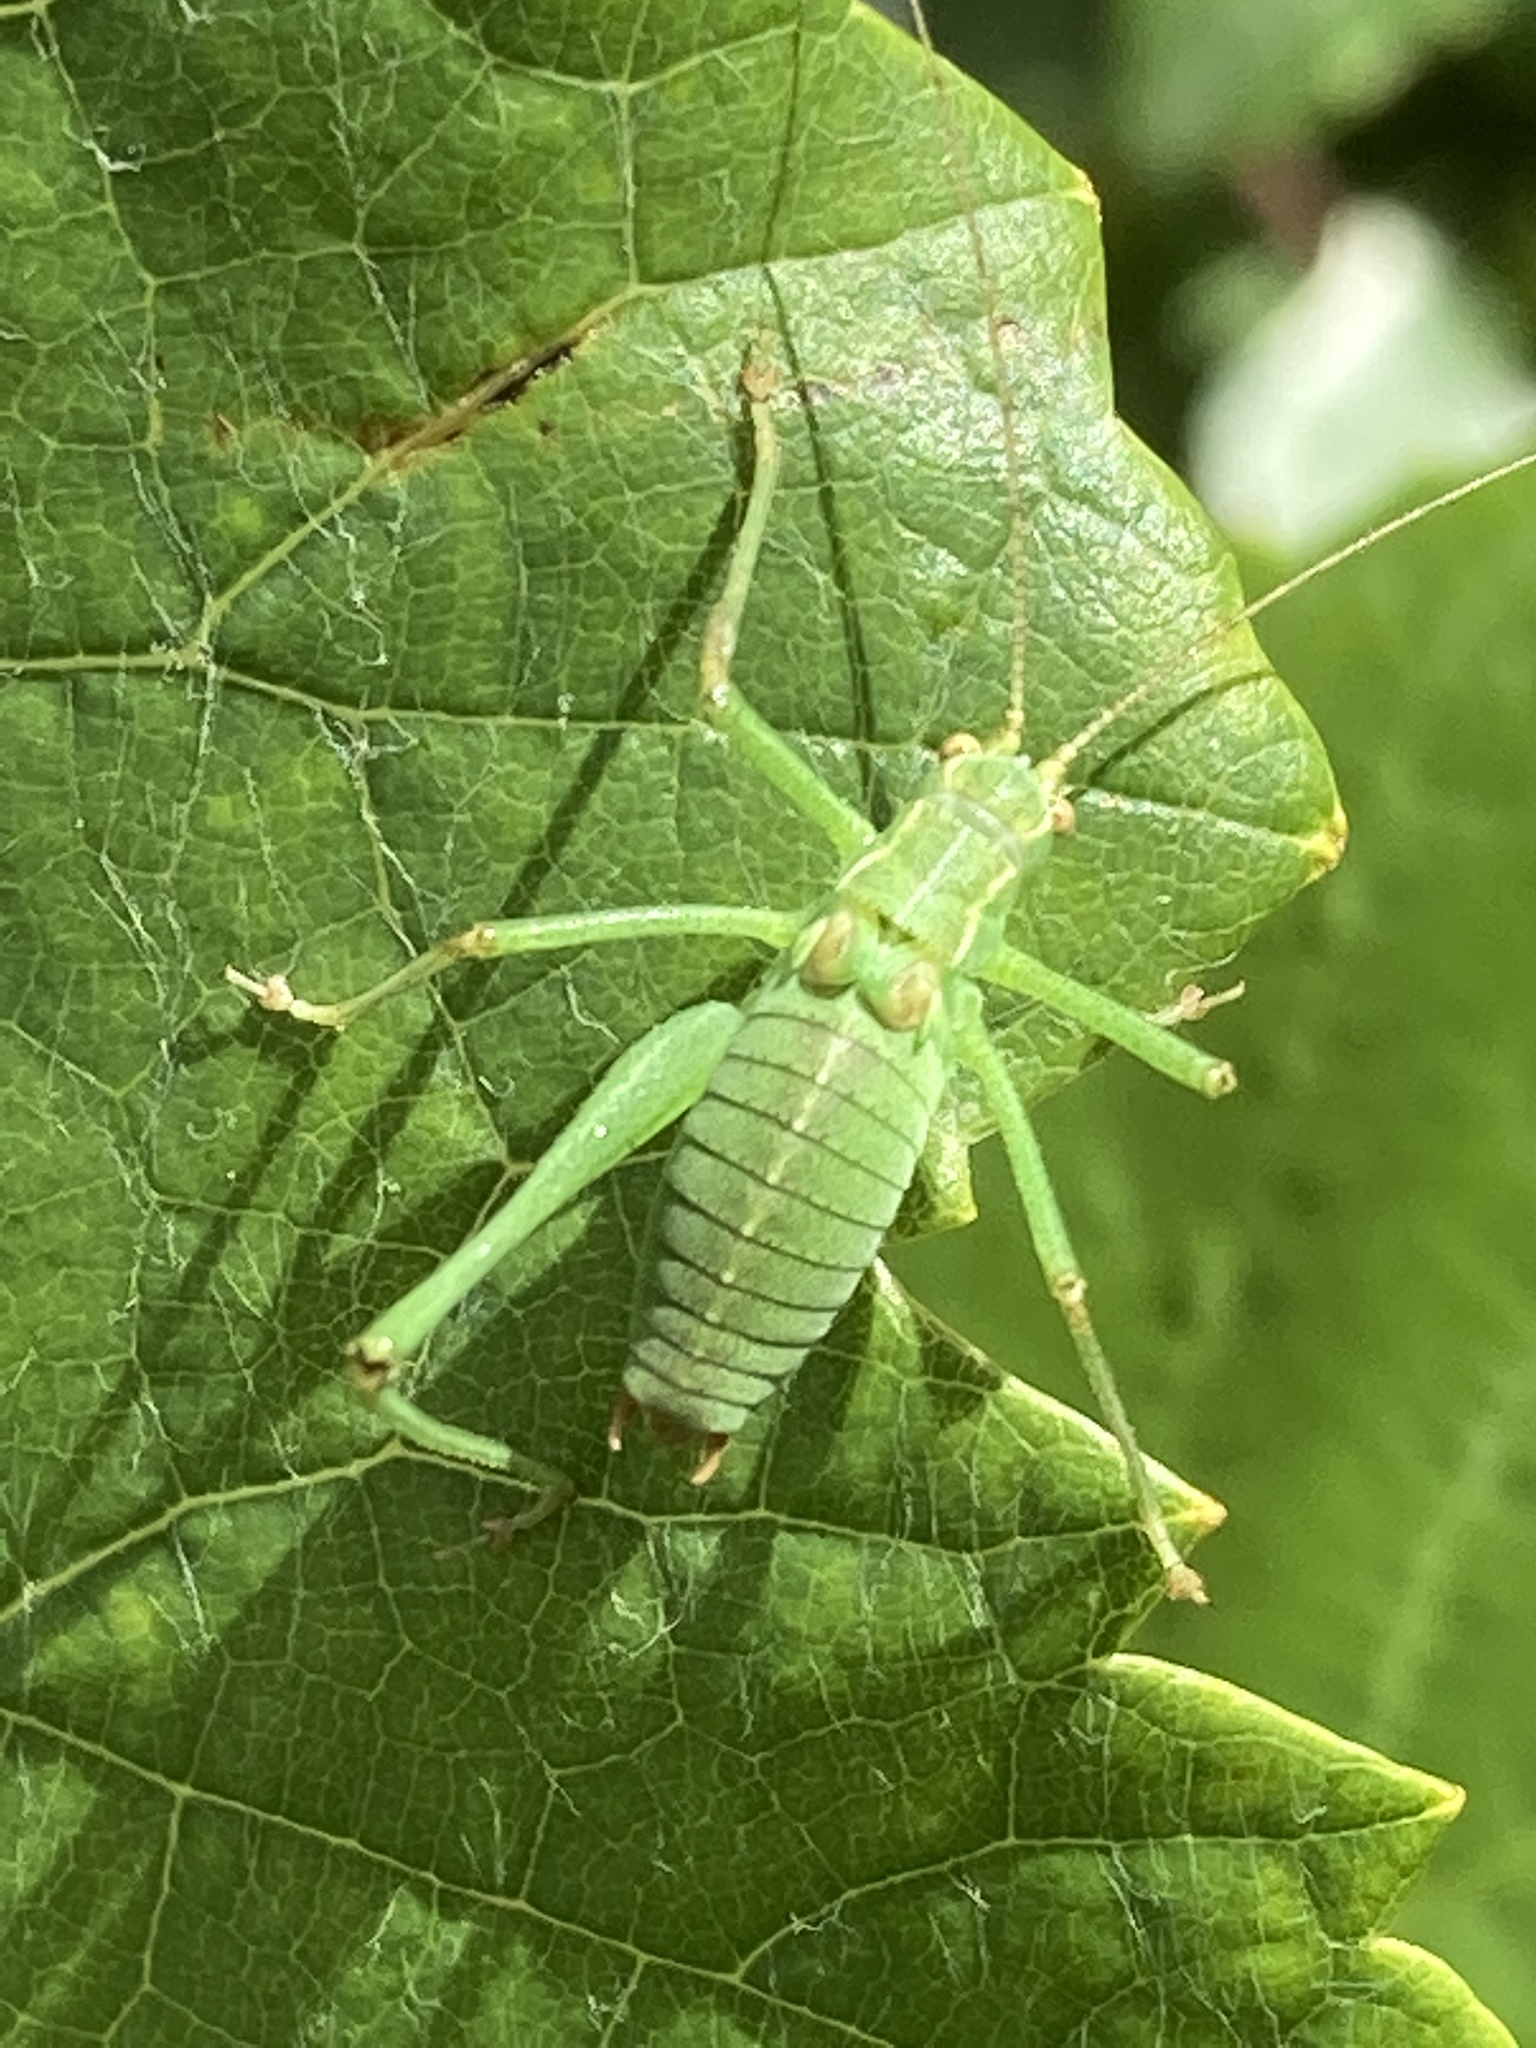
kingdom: Animalia
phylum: Arthropoda
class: Insecta
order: Orthoptera
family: Tettigoniidae
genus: Leptophyes
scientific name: Leptophyes punctatissima
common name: Speckled bush-cricket
